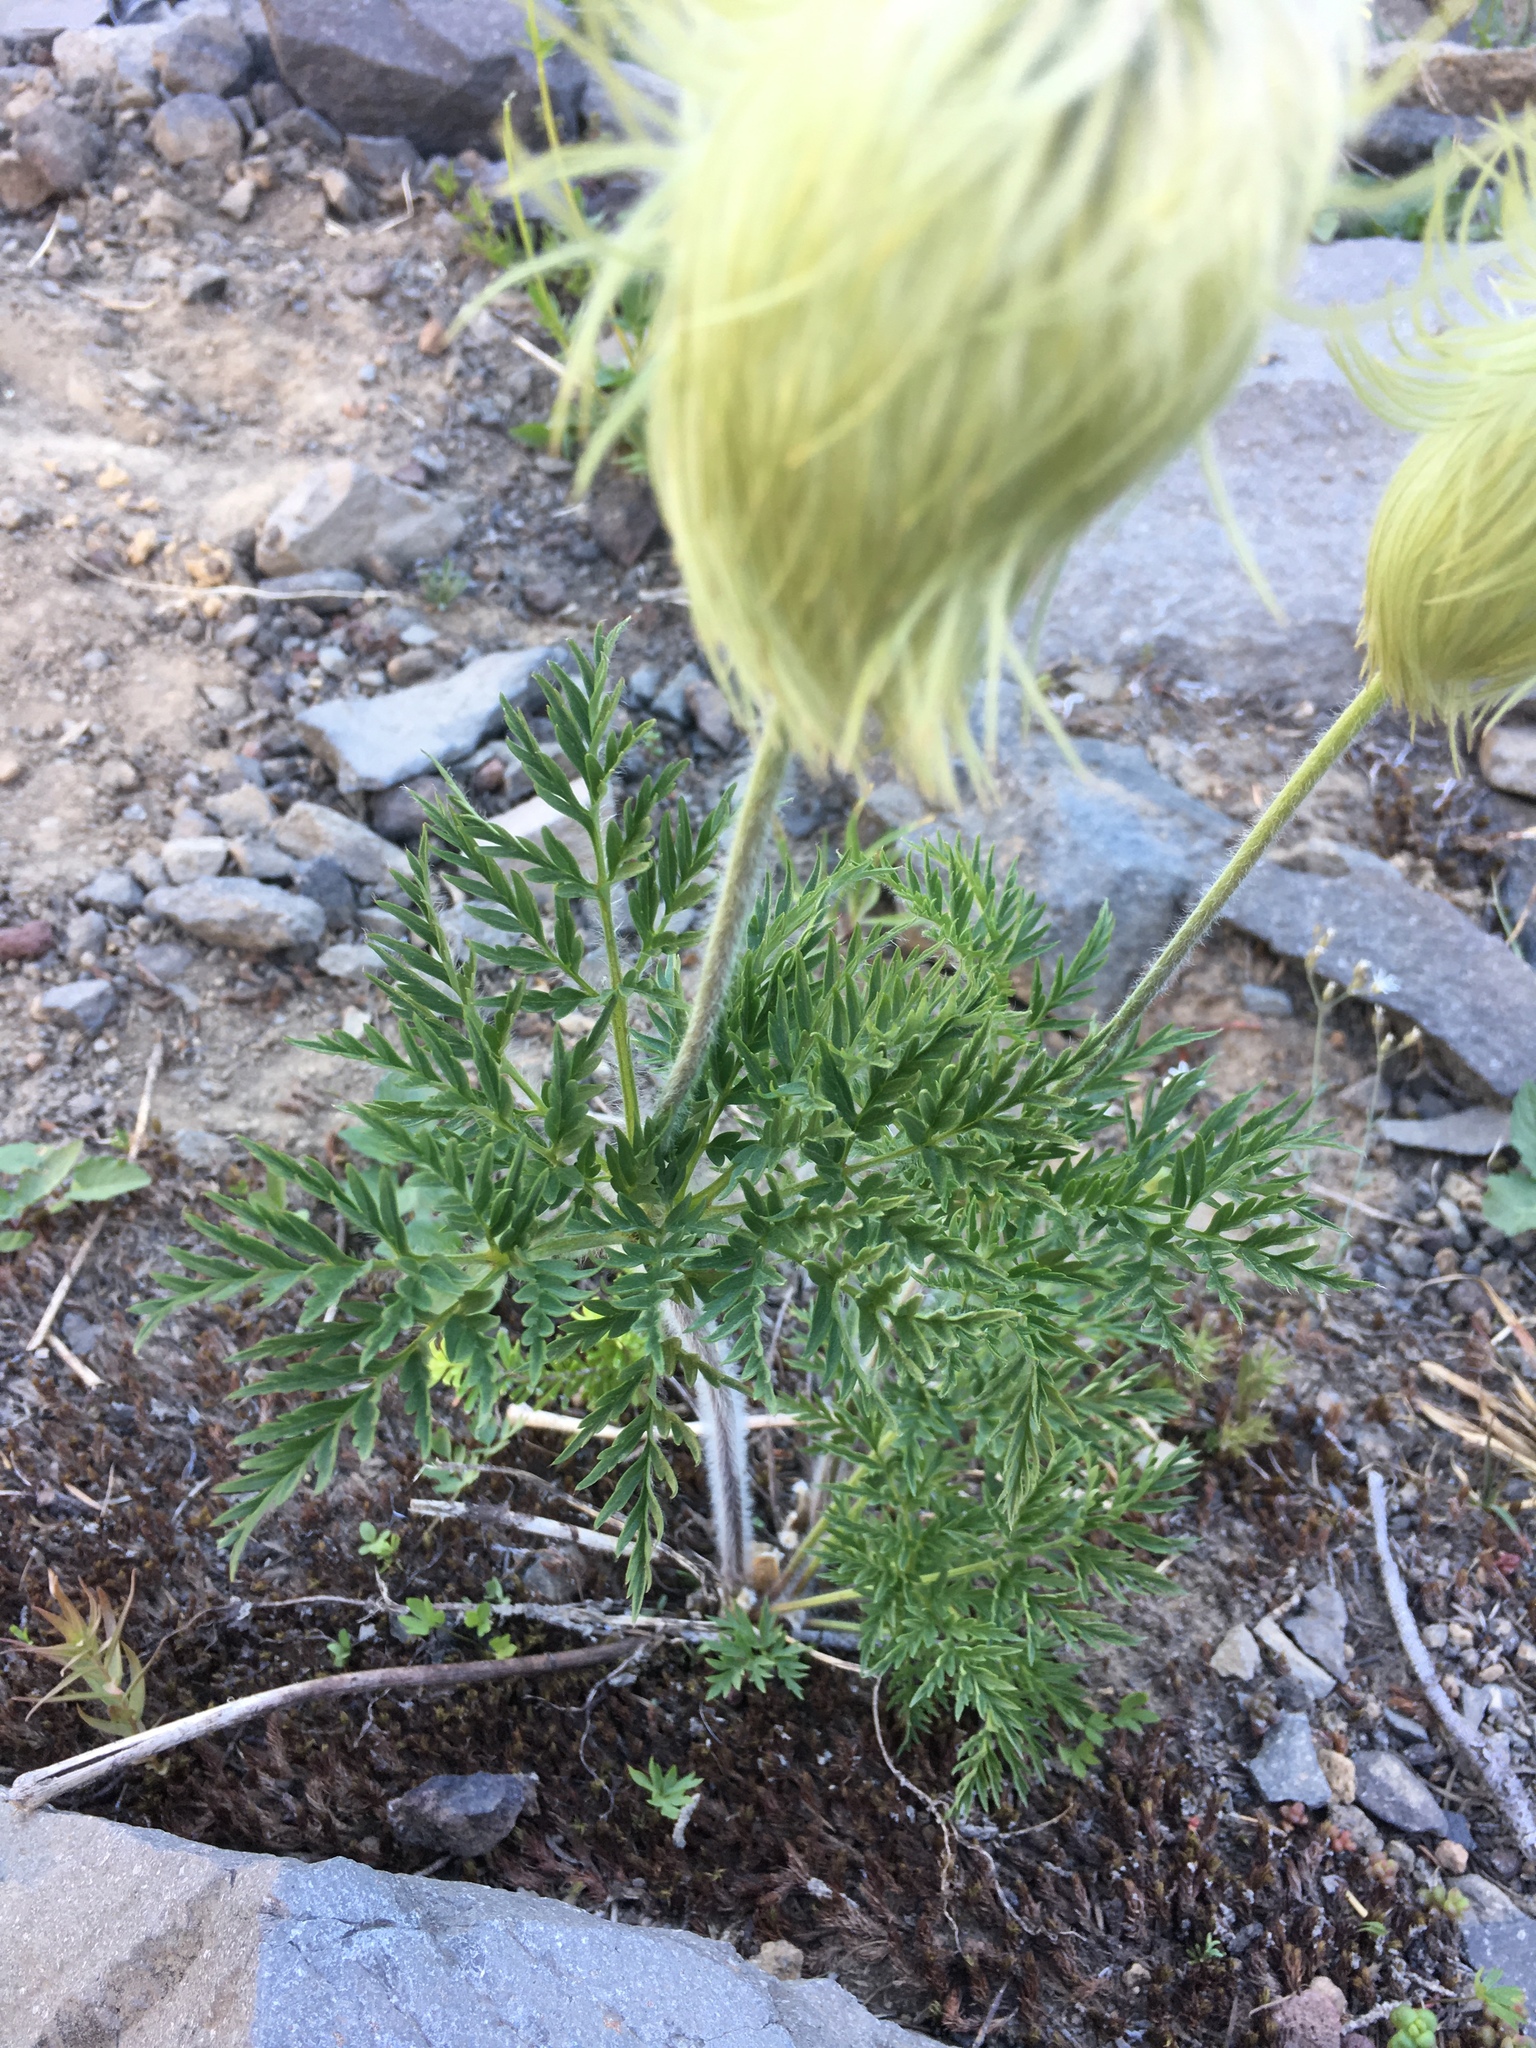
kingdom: Plantae
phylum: Tracheophyta
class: Magnoliopsida
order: Ranunculales
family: Ranunculaceae
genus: Pulsatilla
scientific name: Pulsatilla occidentalis
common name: Mountain pasqueflower
